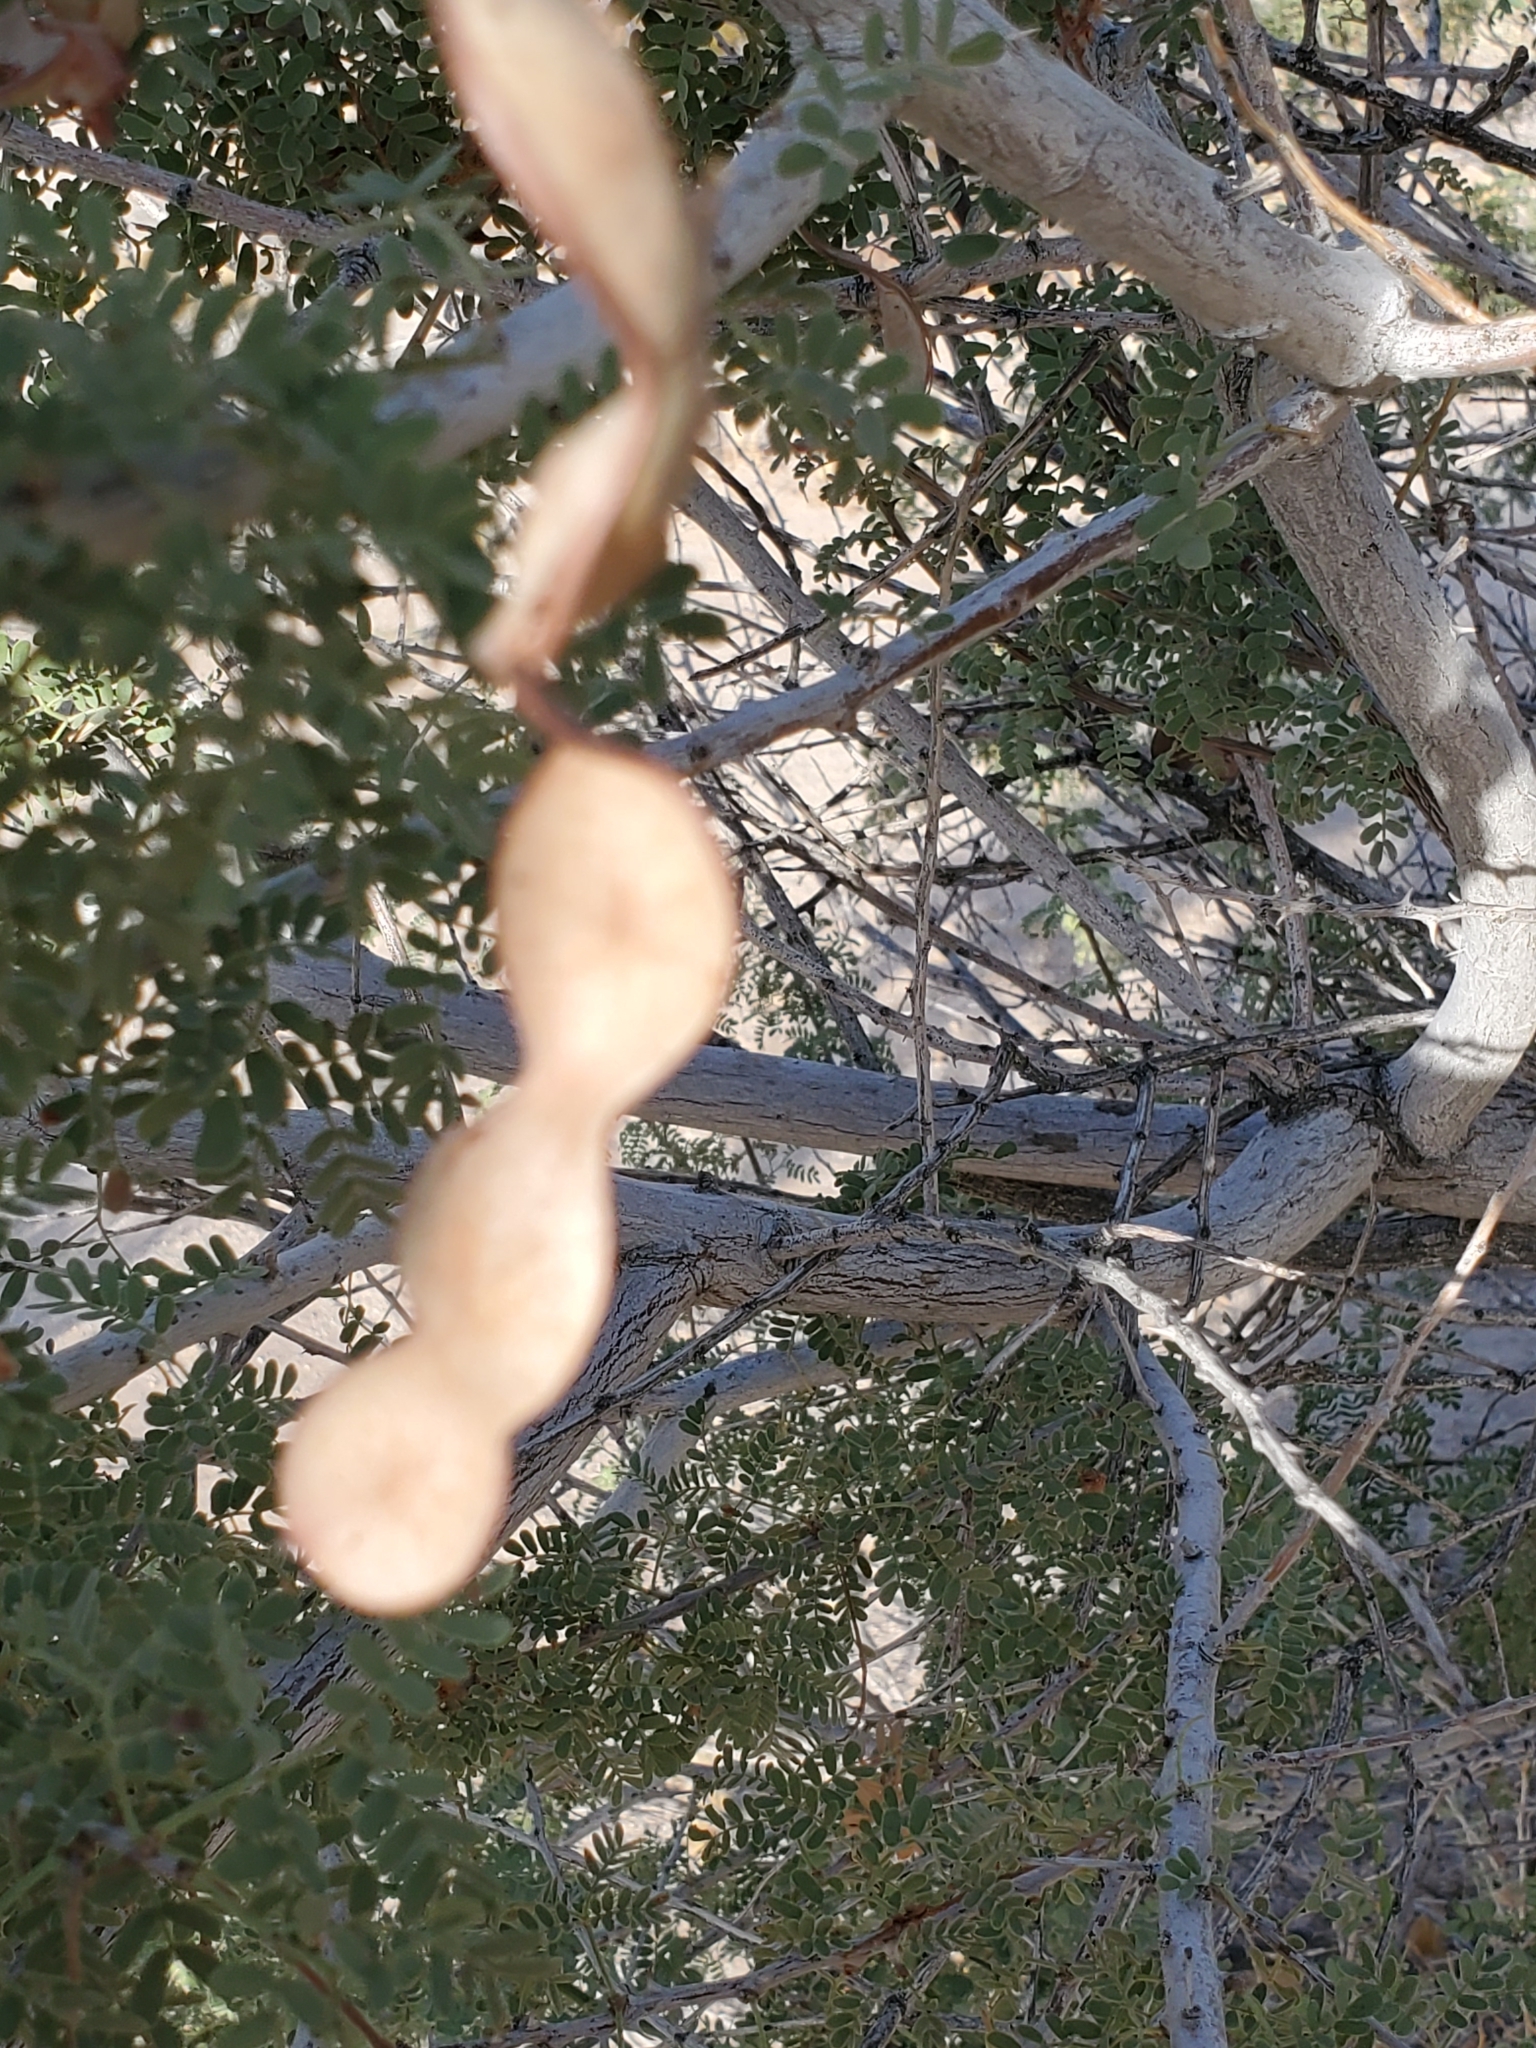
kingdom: Plantae
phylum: Tracheophyta
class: Magnoliopsida
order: Fabales
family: Fabaceae
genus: Senegalia
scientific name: Senegalia greggii
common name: Texas-mimosa
